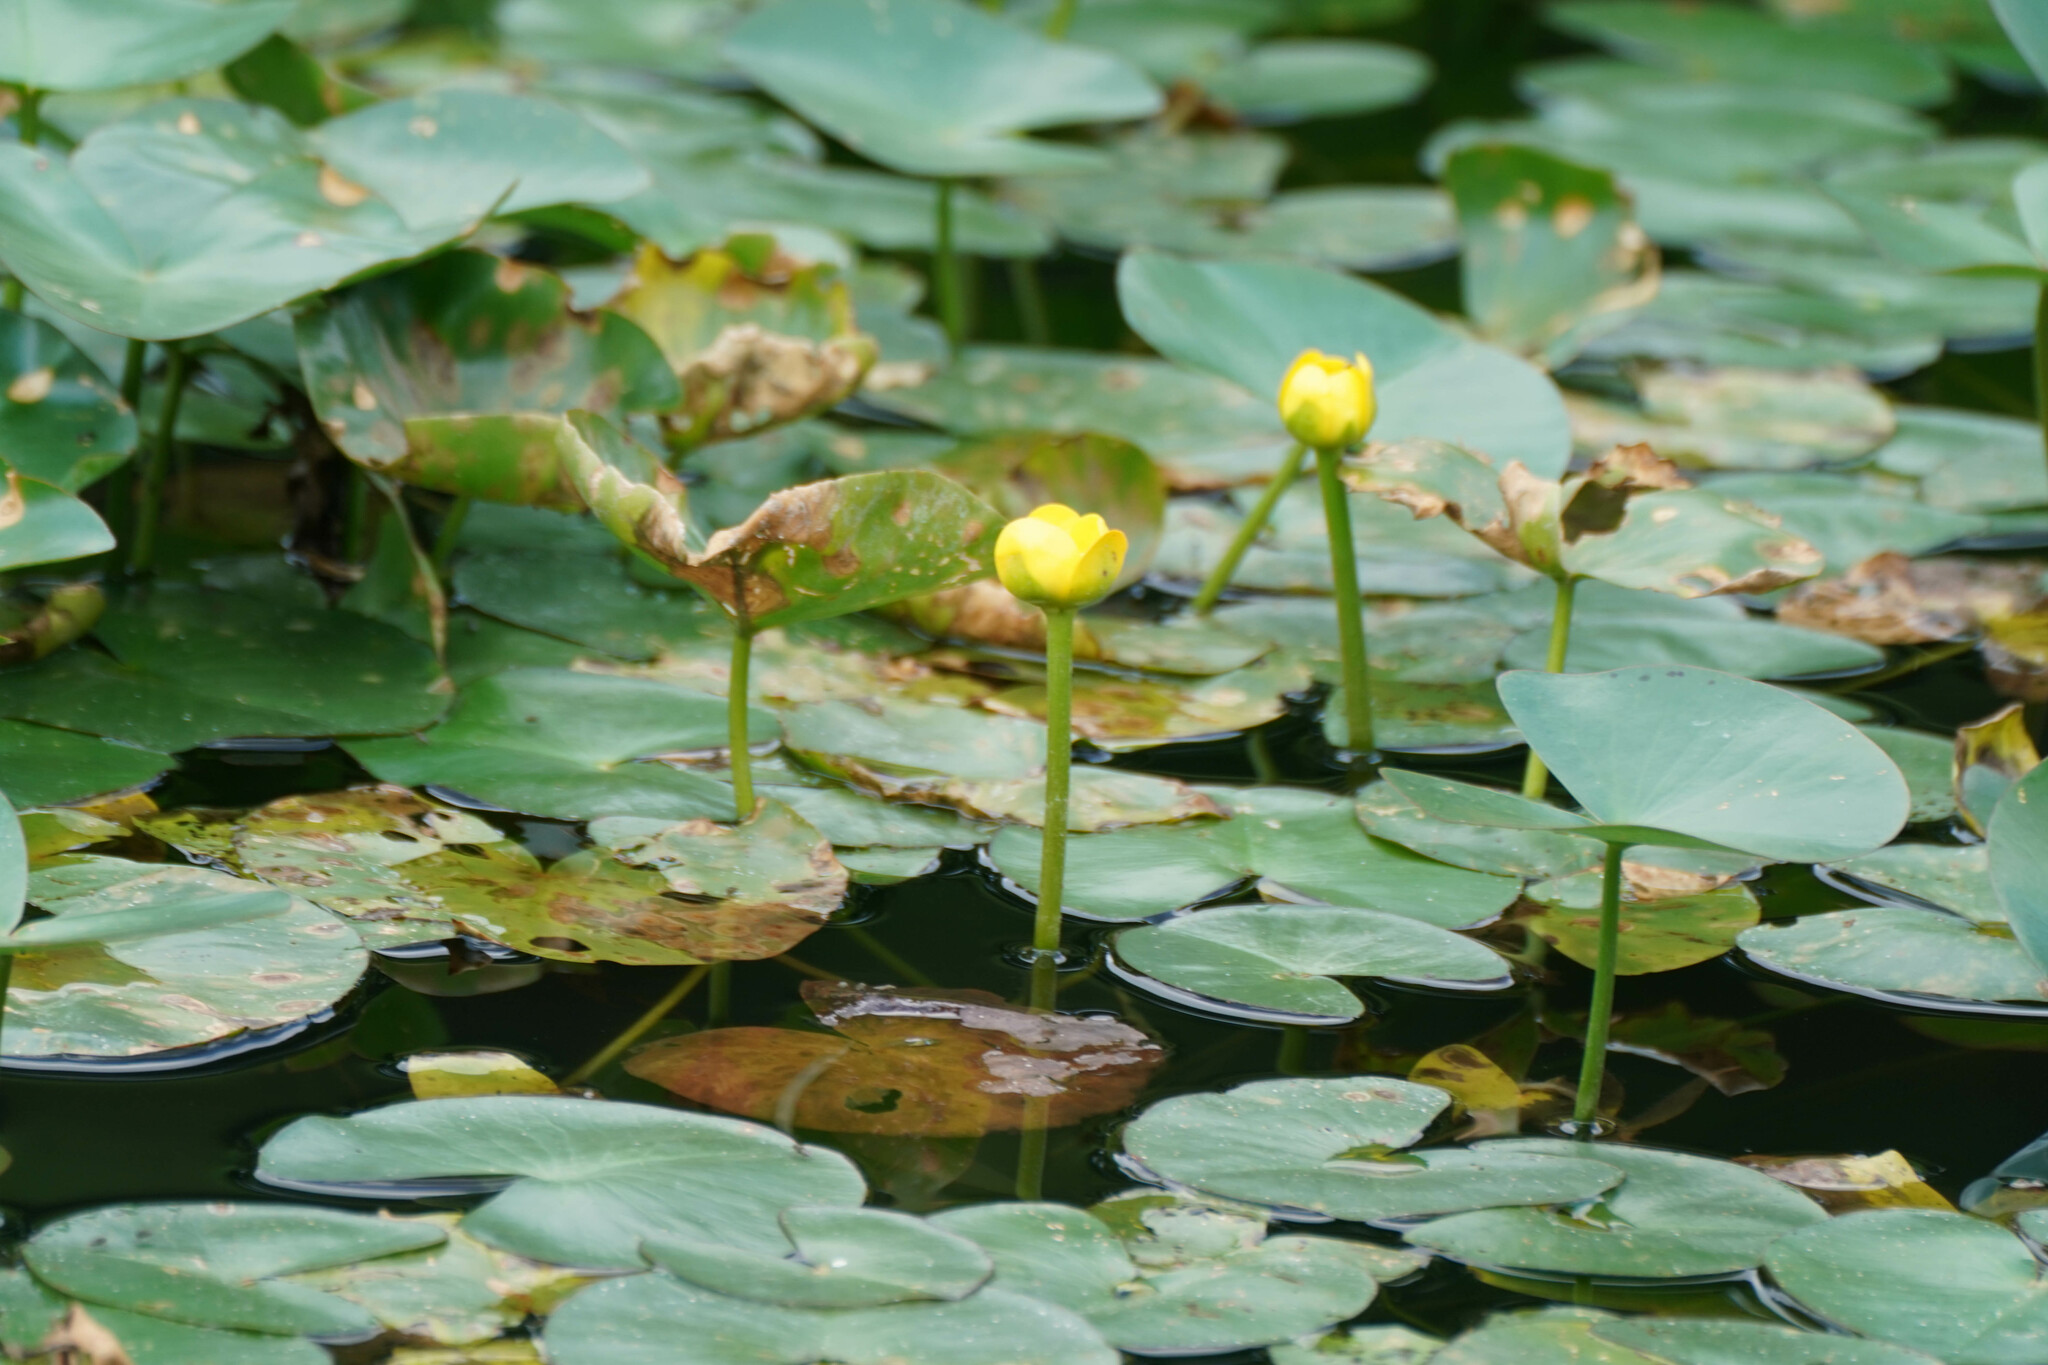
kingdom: Plantae
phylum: Tracheophyta
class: Magnoliopsida
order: Nymphaeales
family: Nymphaeaceae
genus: Nuphar
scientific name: Nuphar subintegerrima
